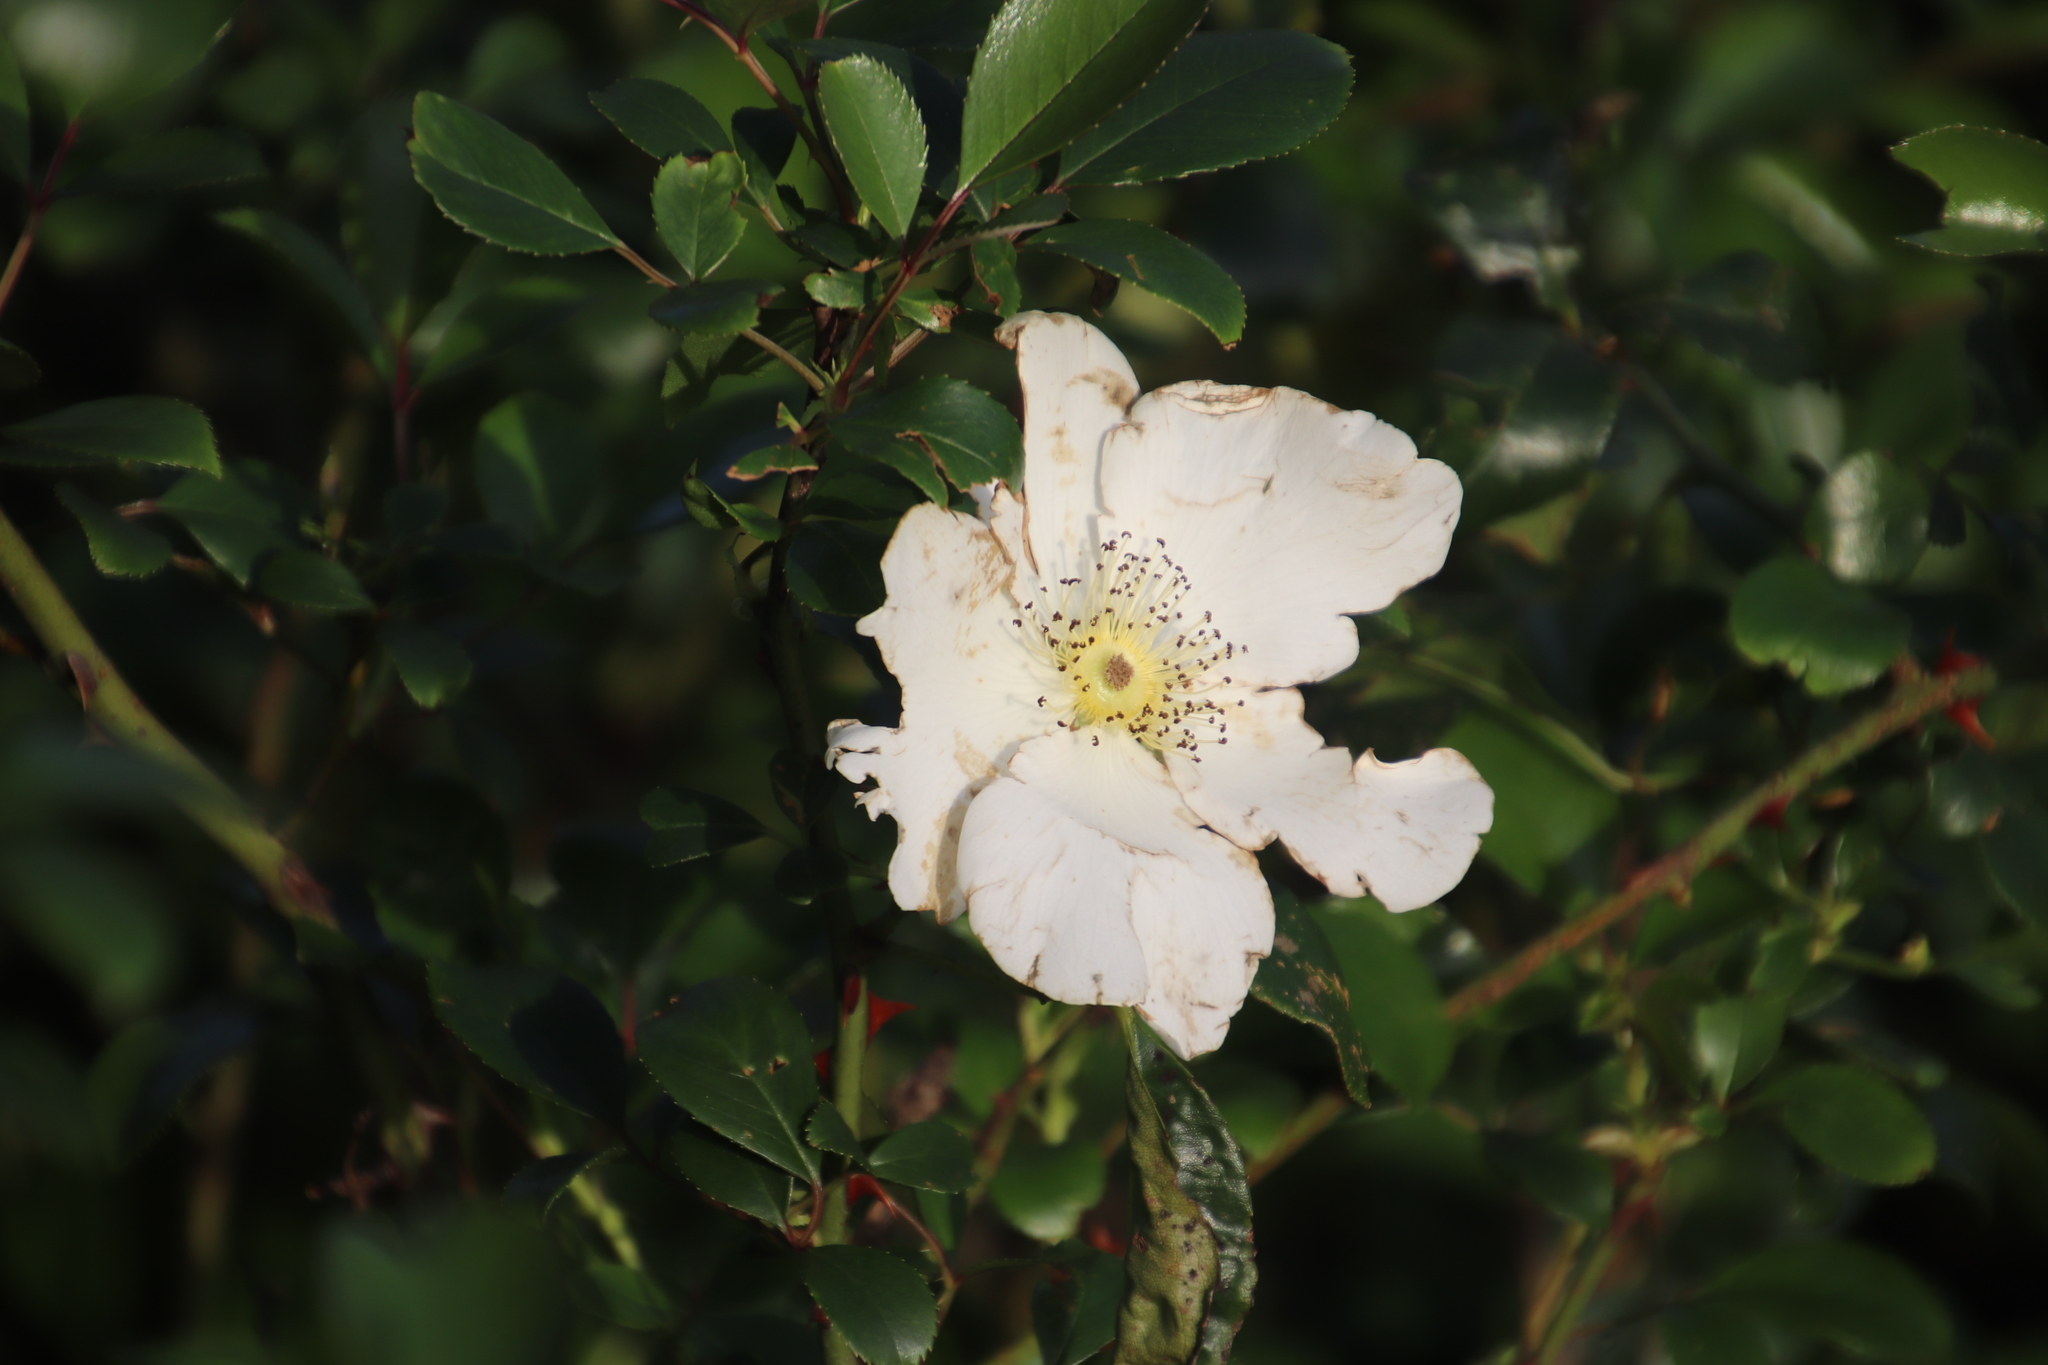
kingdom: Plantae
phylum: Tracheophyta
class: Magnoliopsida
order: Rosales
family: Rosaceae
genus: Rosa
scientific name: Rosa laevigata
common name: Cherokee rose
